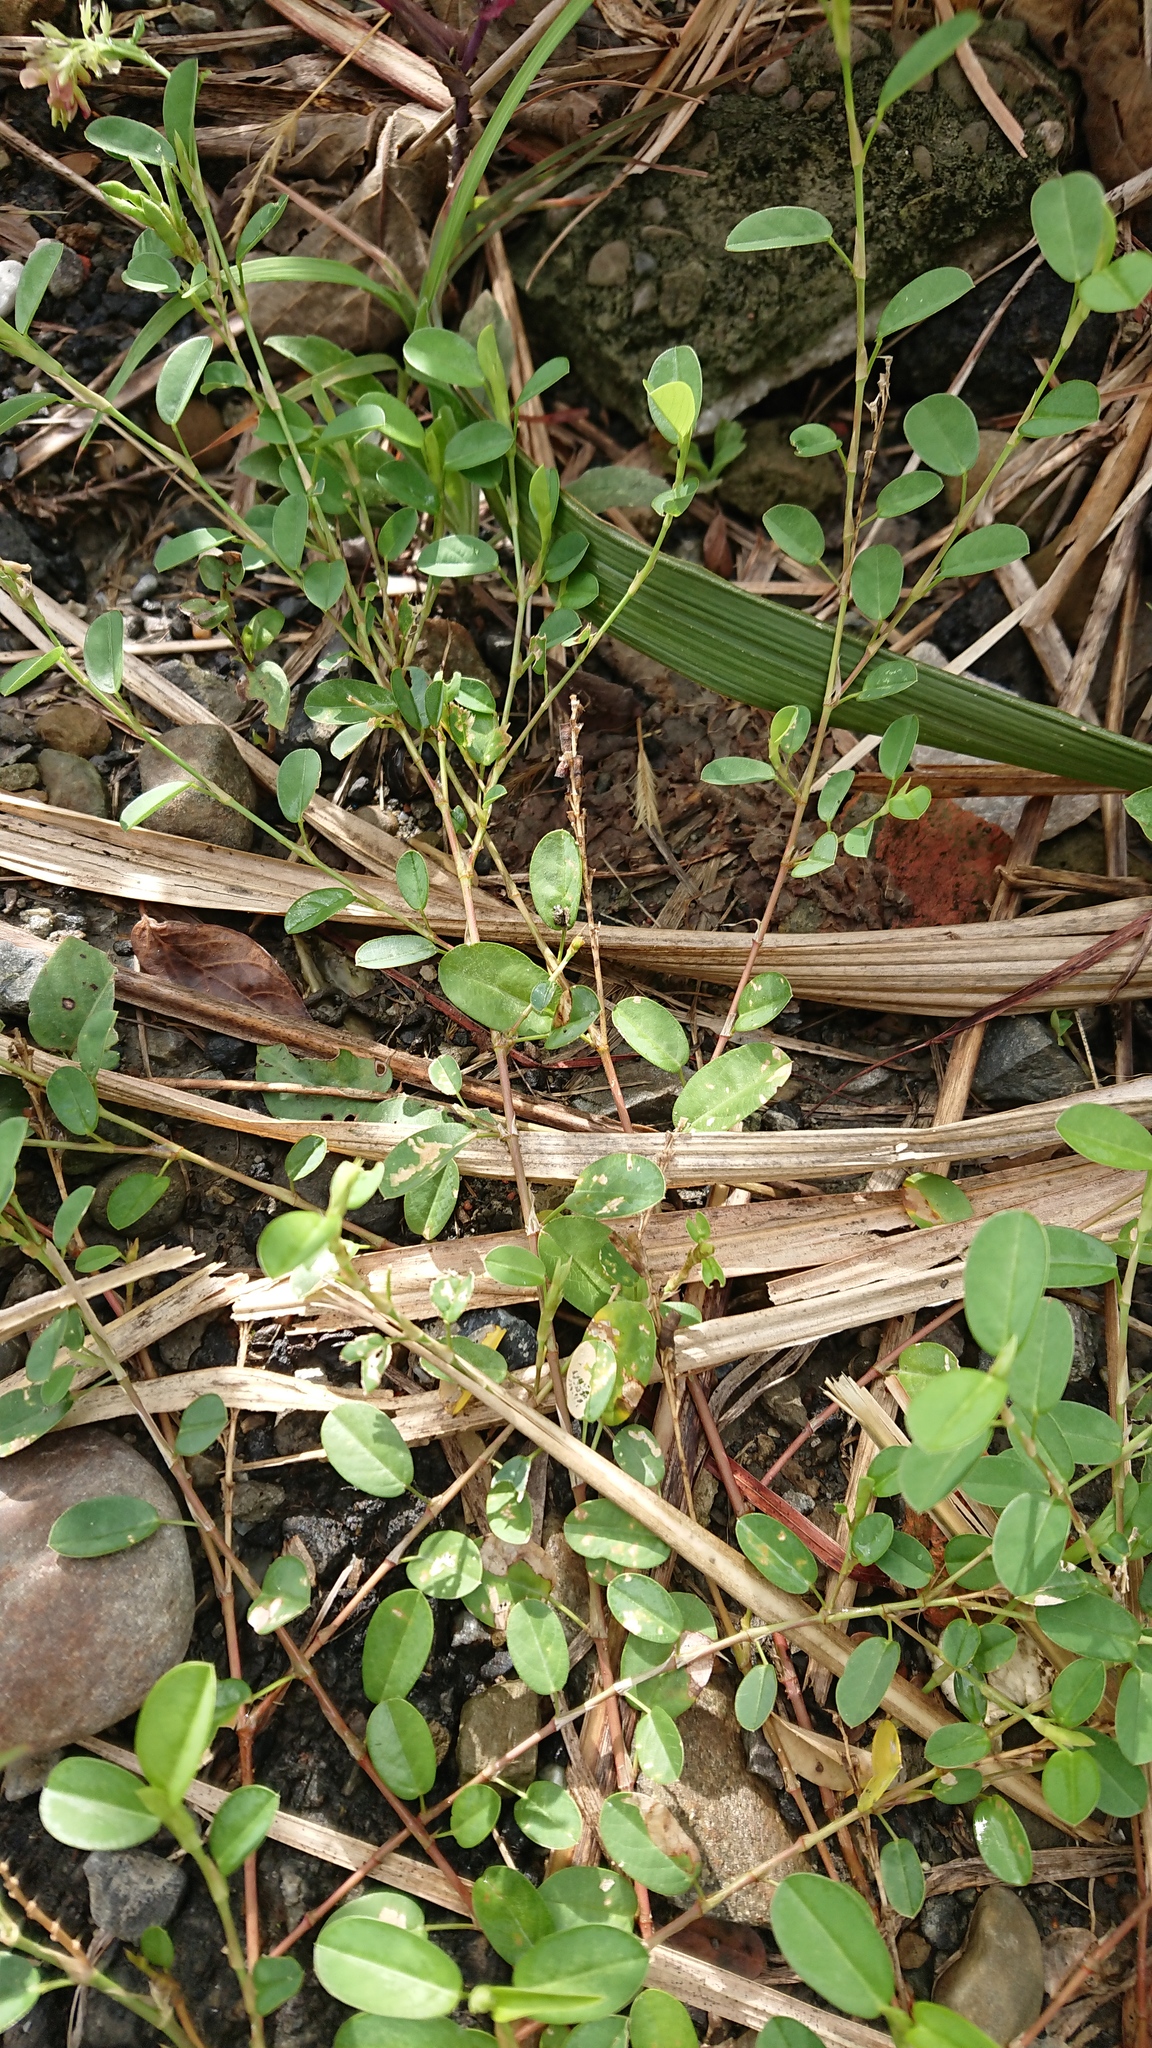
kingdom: Plantae
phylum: Tracheophyta
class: Magnoliopsida
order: Fabales
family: Fabaceae
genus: Alysicarpus
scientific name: Alysicarpus vaginalis
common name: White moneywort
